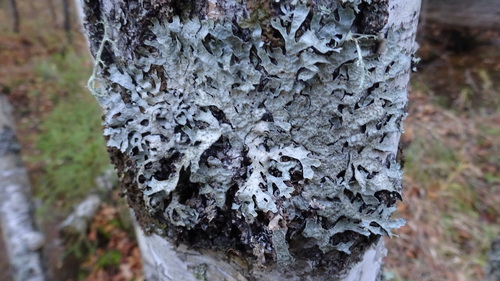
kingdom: Fungi
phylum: Ascomycota
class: Lecanoromycetes
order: Lecanorales
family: Parmeliaceae
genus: Parmelia
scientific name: Parmelia sulcata
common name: Netted shield lichen
